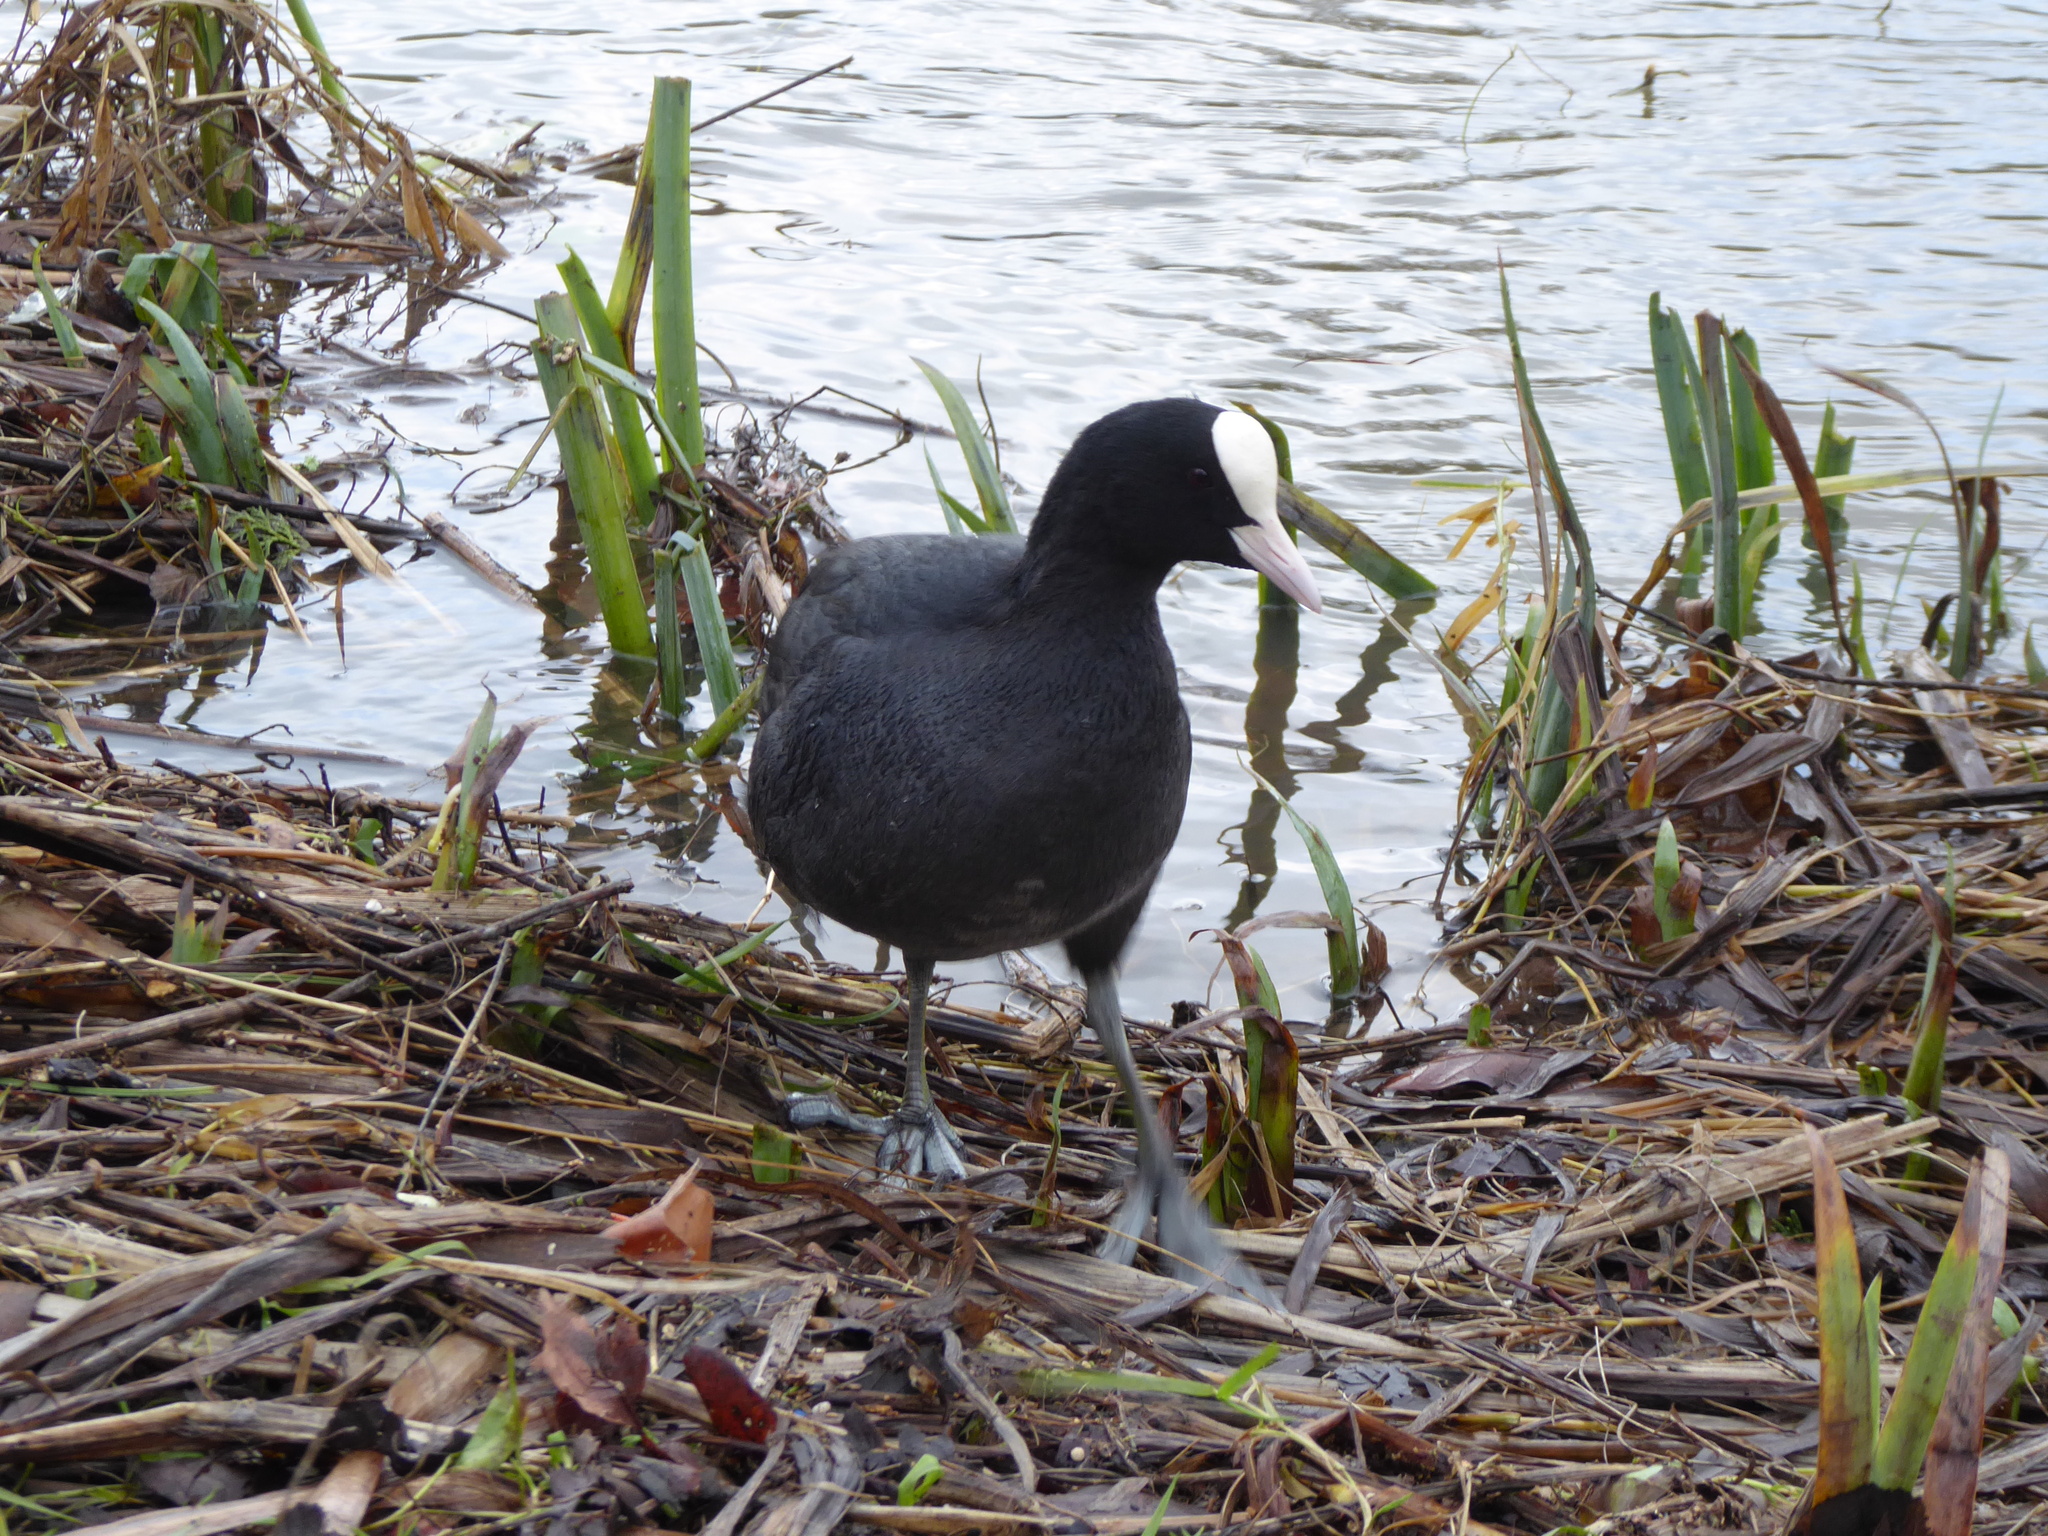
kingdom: Animalia
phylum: Chordata
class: Aves
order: Gruiformes
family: Rallidae
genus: Fulica
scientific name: Fulica atra
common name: Eurasian coot
